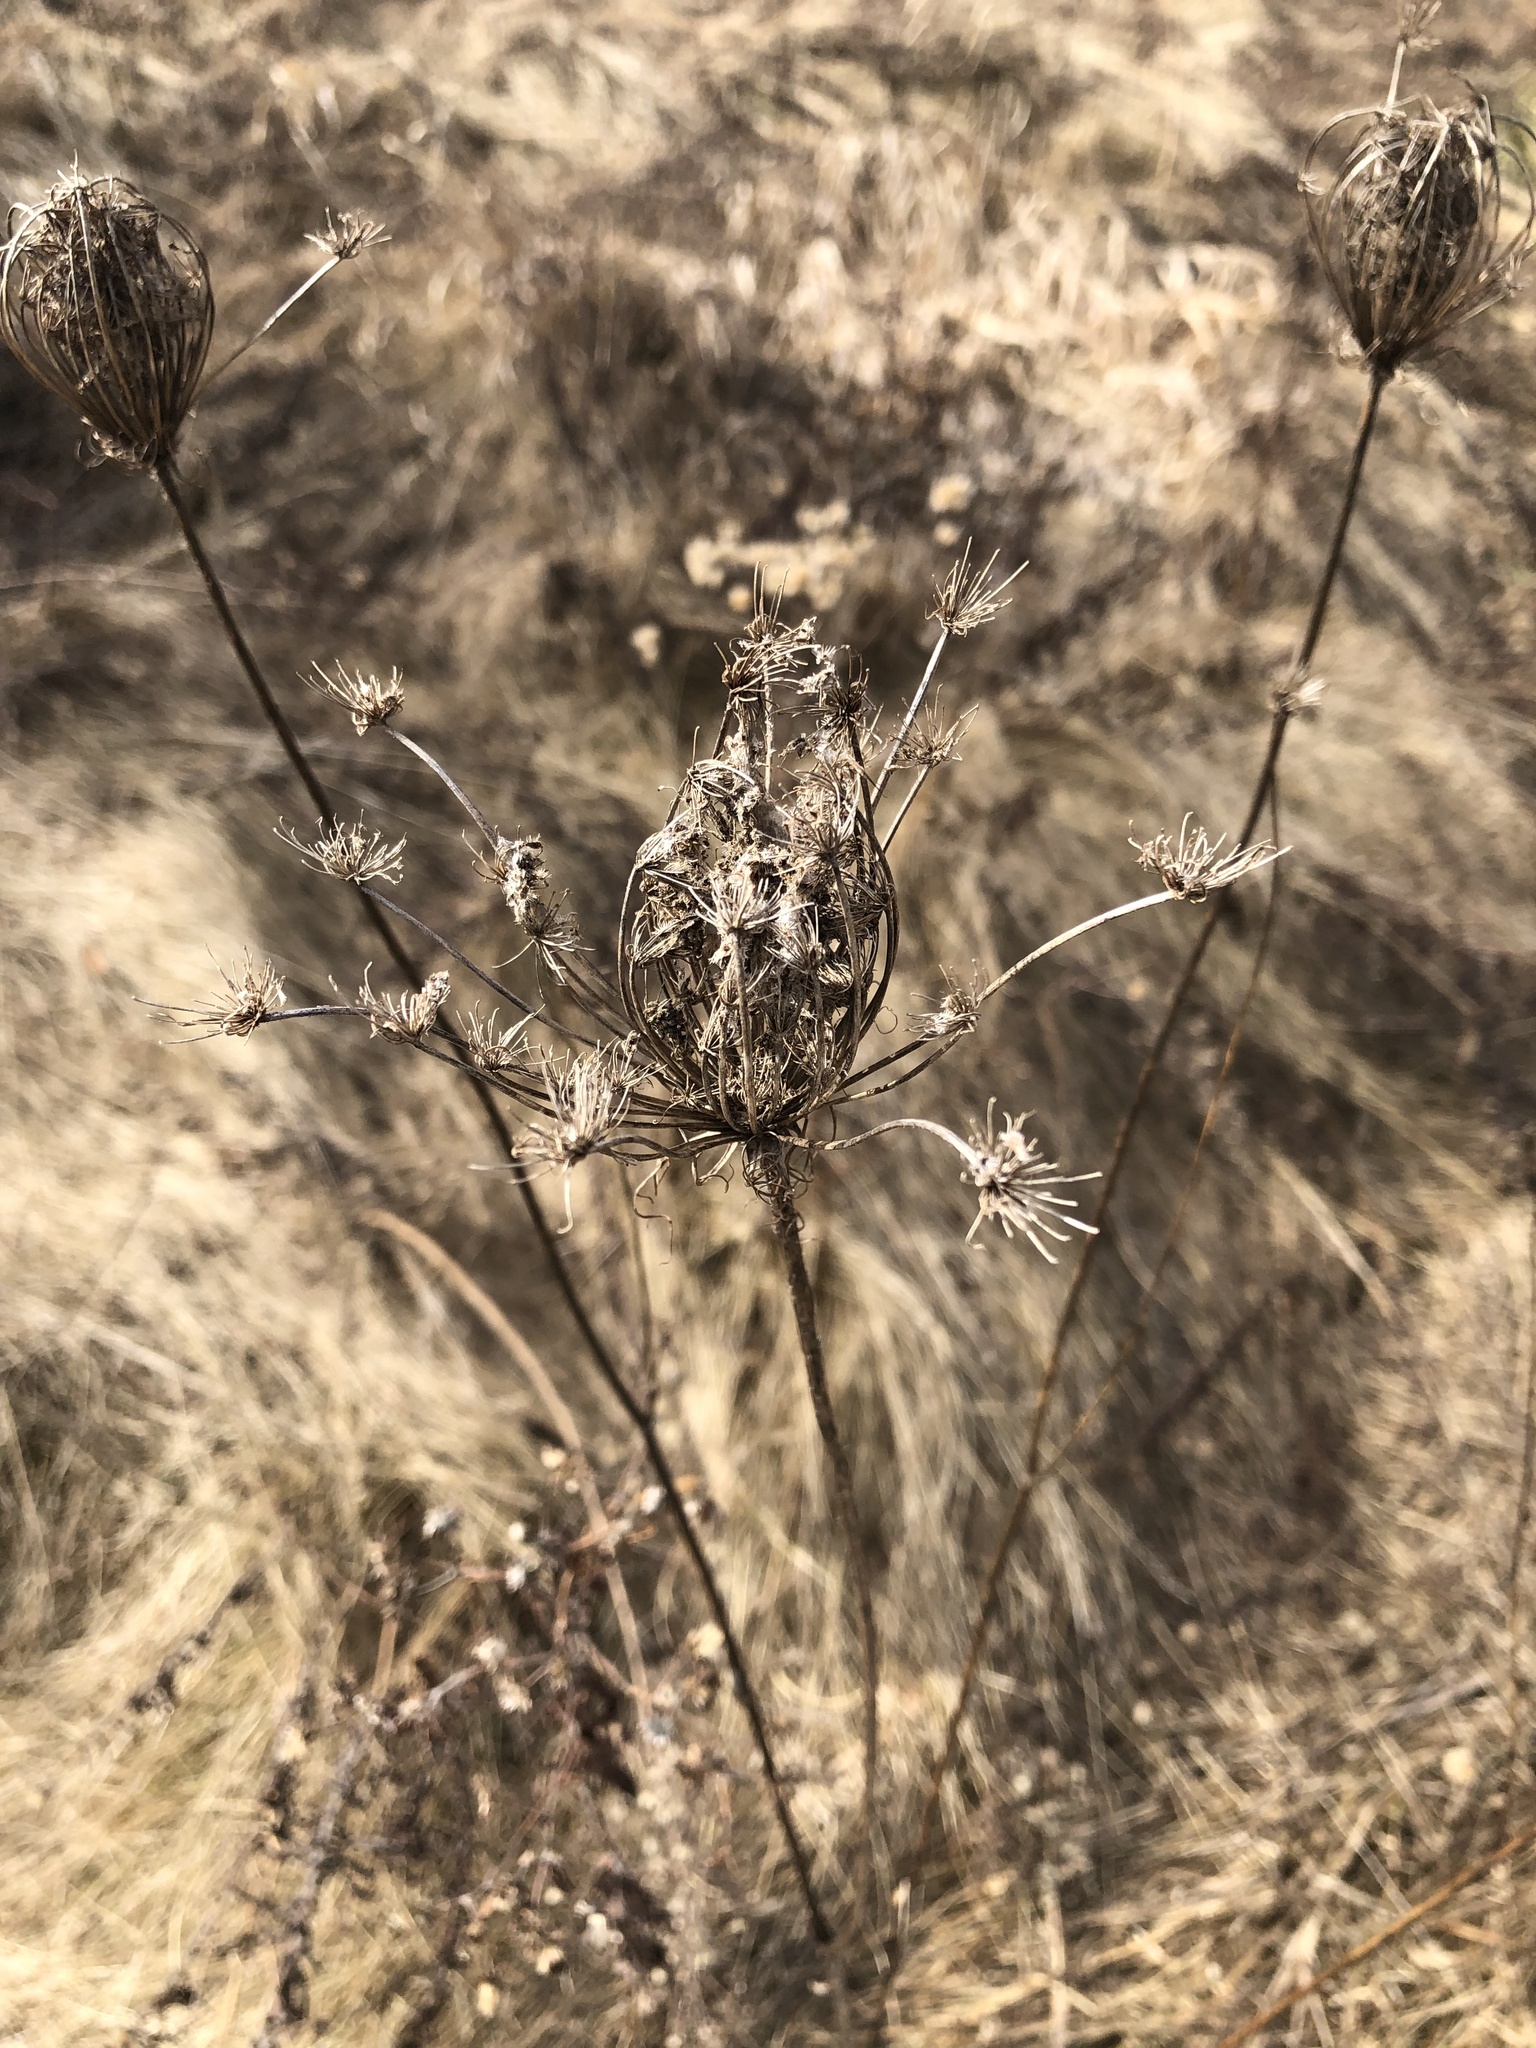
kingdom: Plantae
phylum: Tracheophyta
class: Magnoliopsida
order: Apiales
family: Apiaceae
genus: Daucus
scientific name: Daucus carota
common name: Wild carrot
